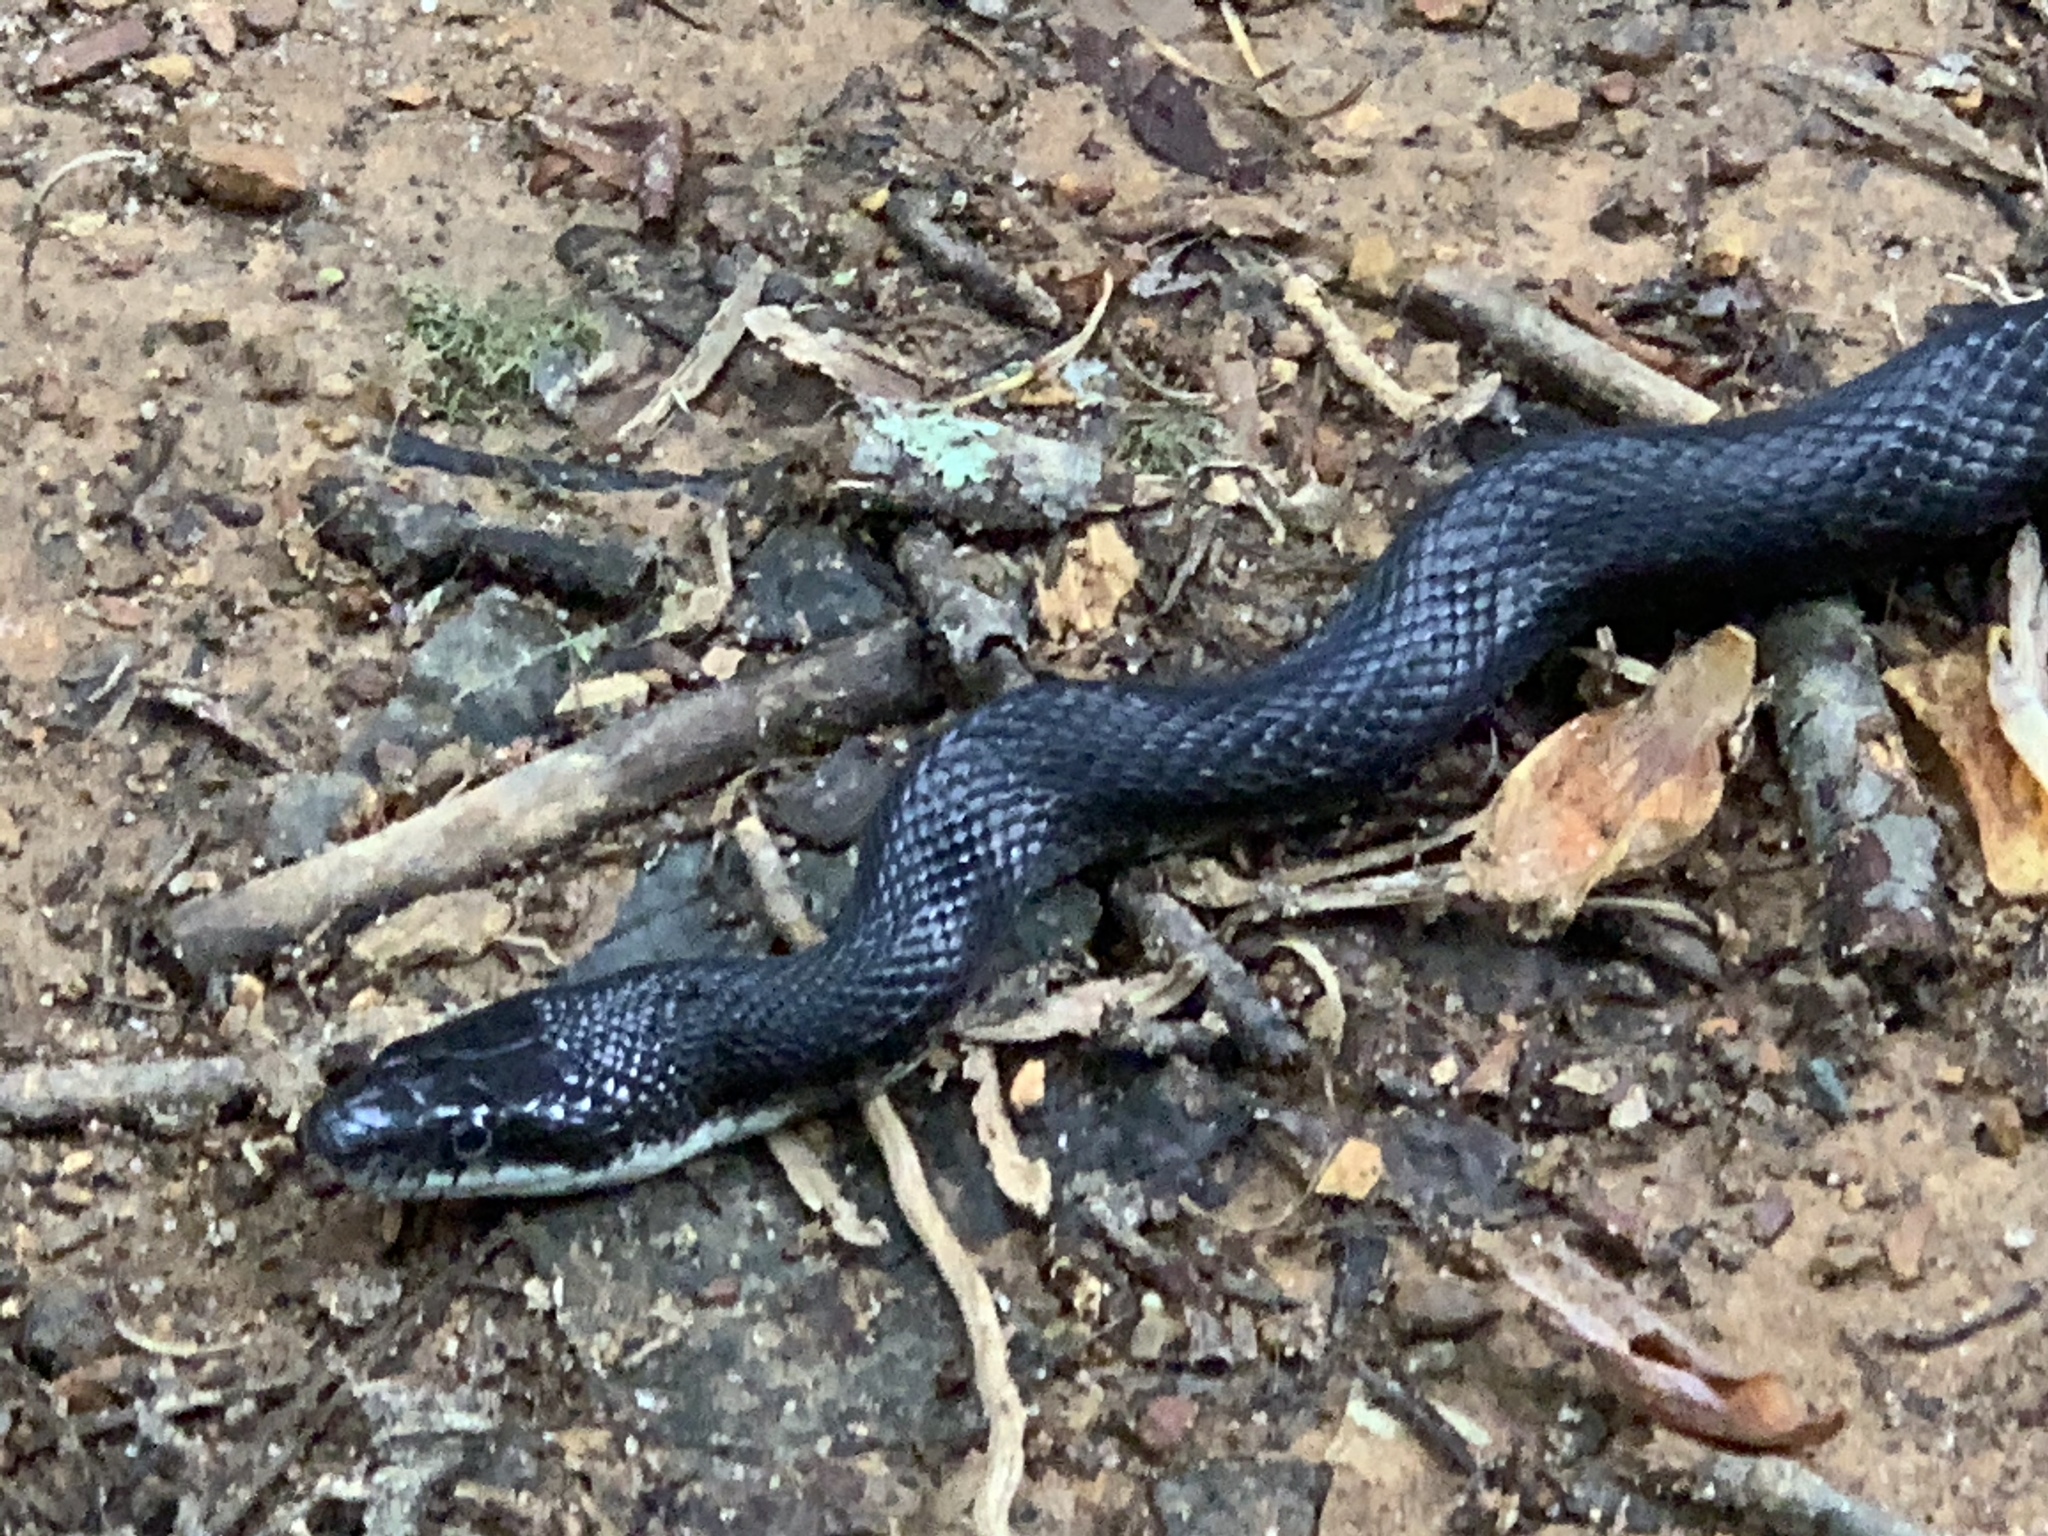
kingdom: Animalia
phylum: Chordata
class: Squamata
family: Colubridae
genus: Pantherophis
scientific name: Pantherophis alleghaniensis
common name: Eastern rat snake
